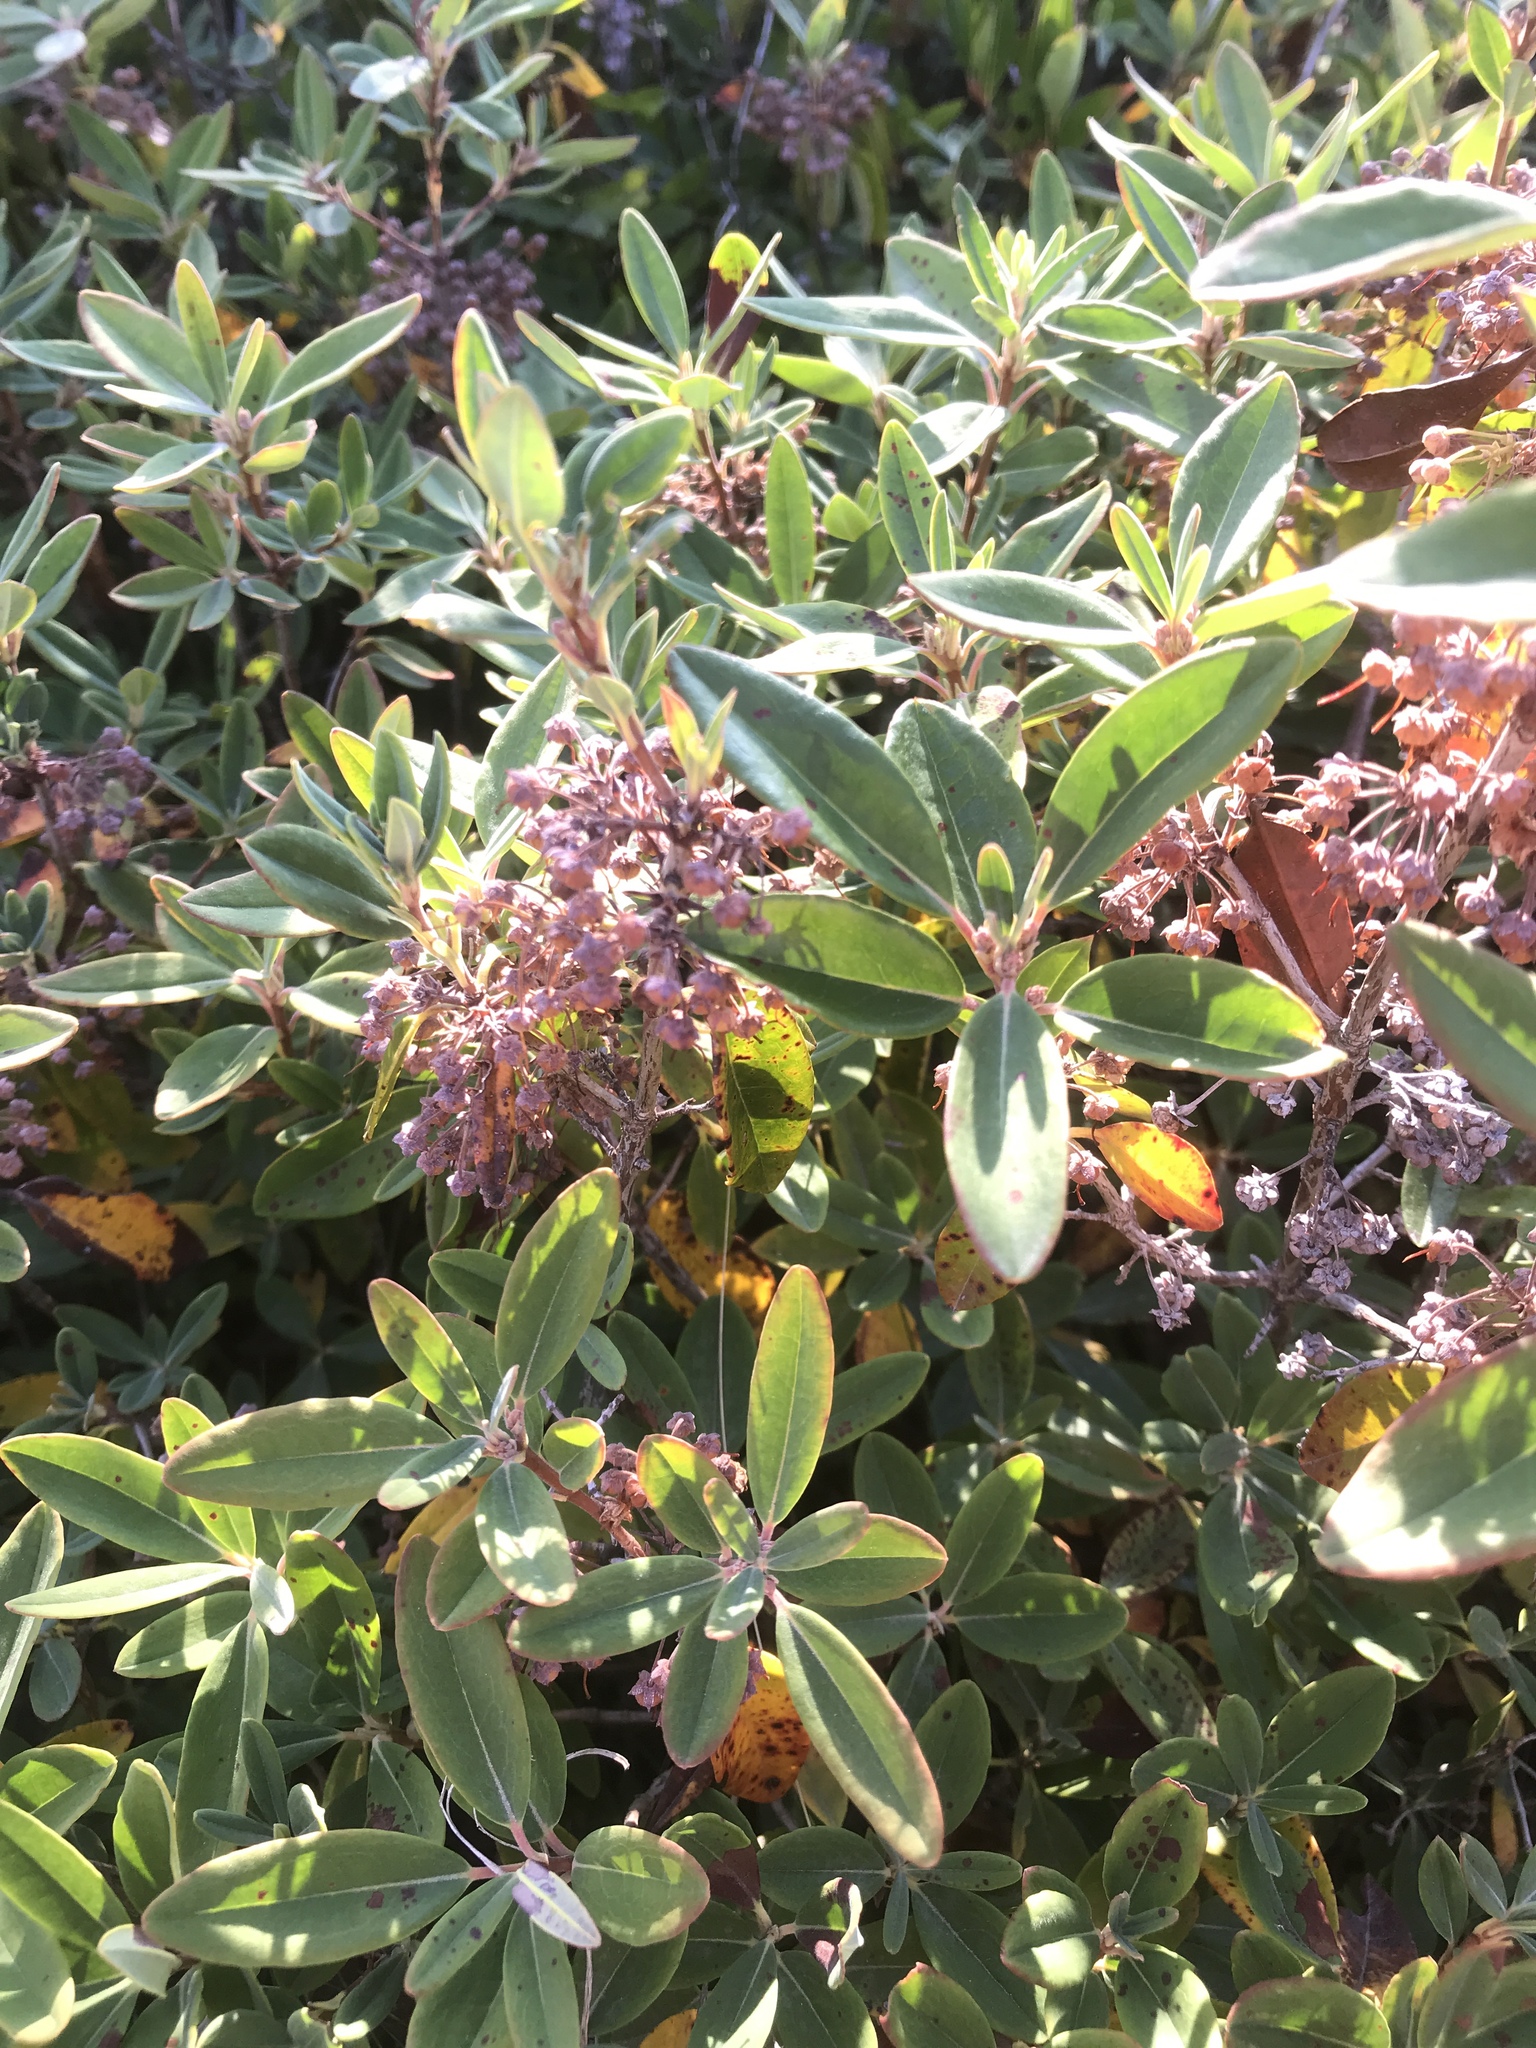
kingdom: Plantae
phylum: Tracheophyta
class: Magnoliopsida
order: Ericales
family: Ericaceae
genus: Kalmia
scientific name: Kalmia angustifolia
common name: Sheep-laurel
